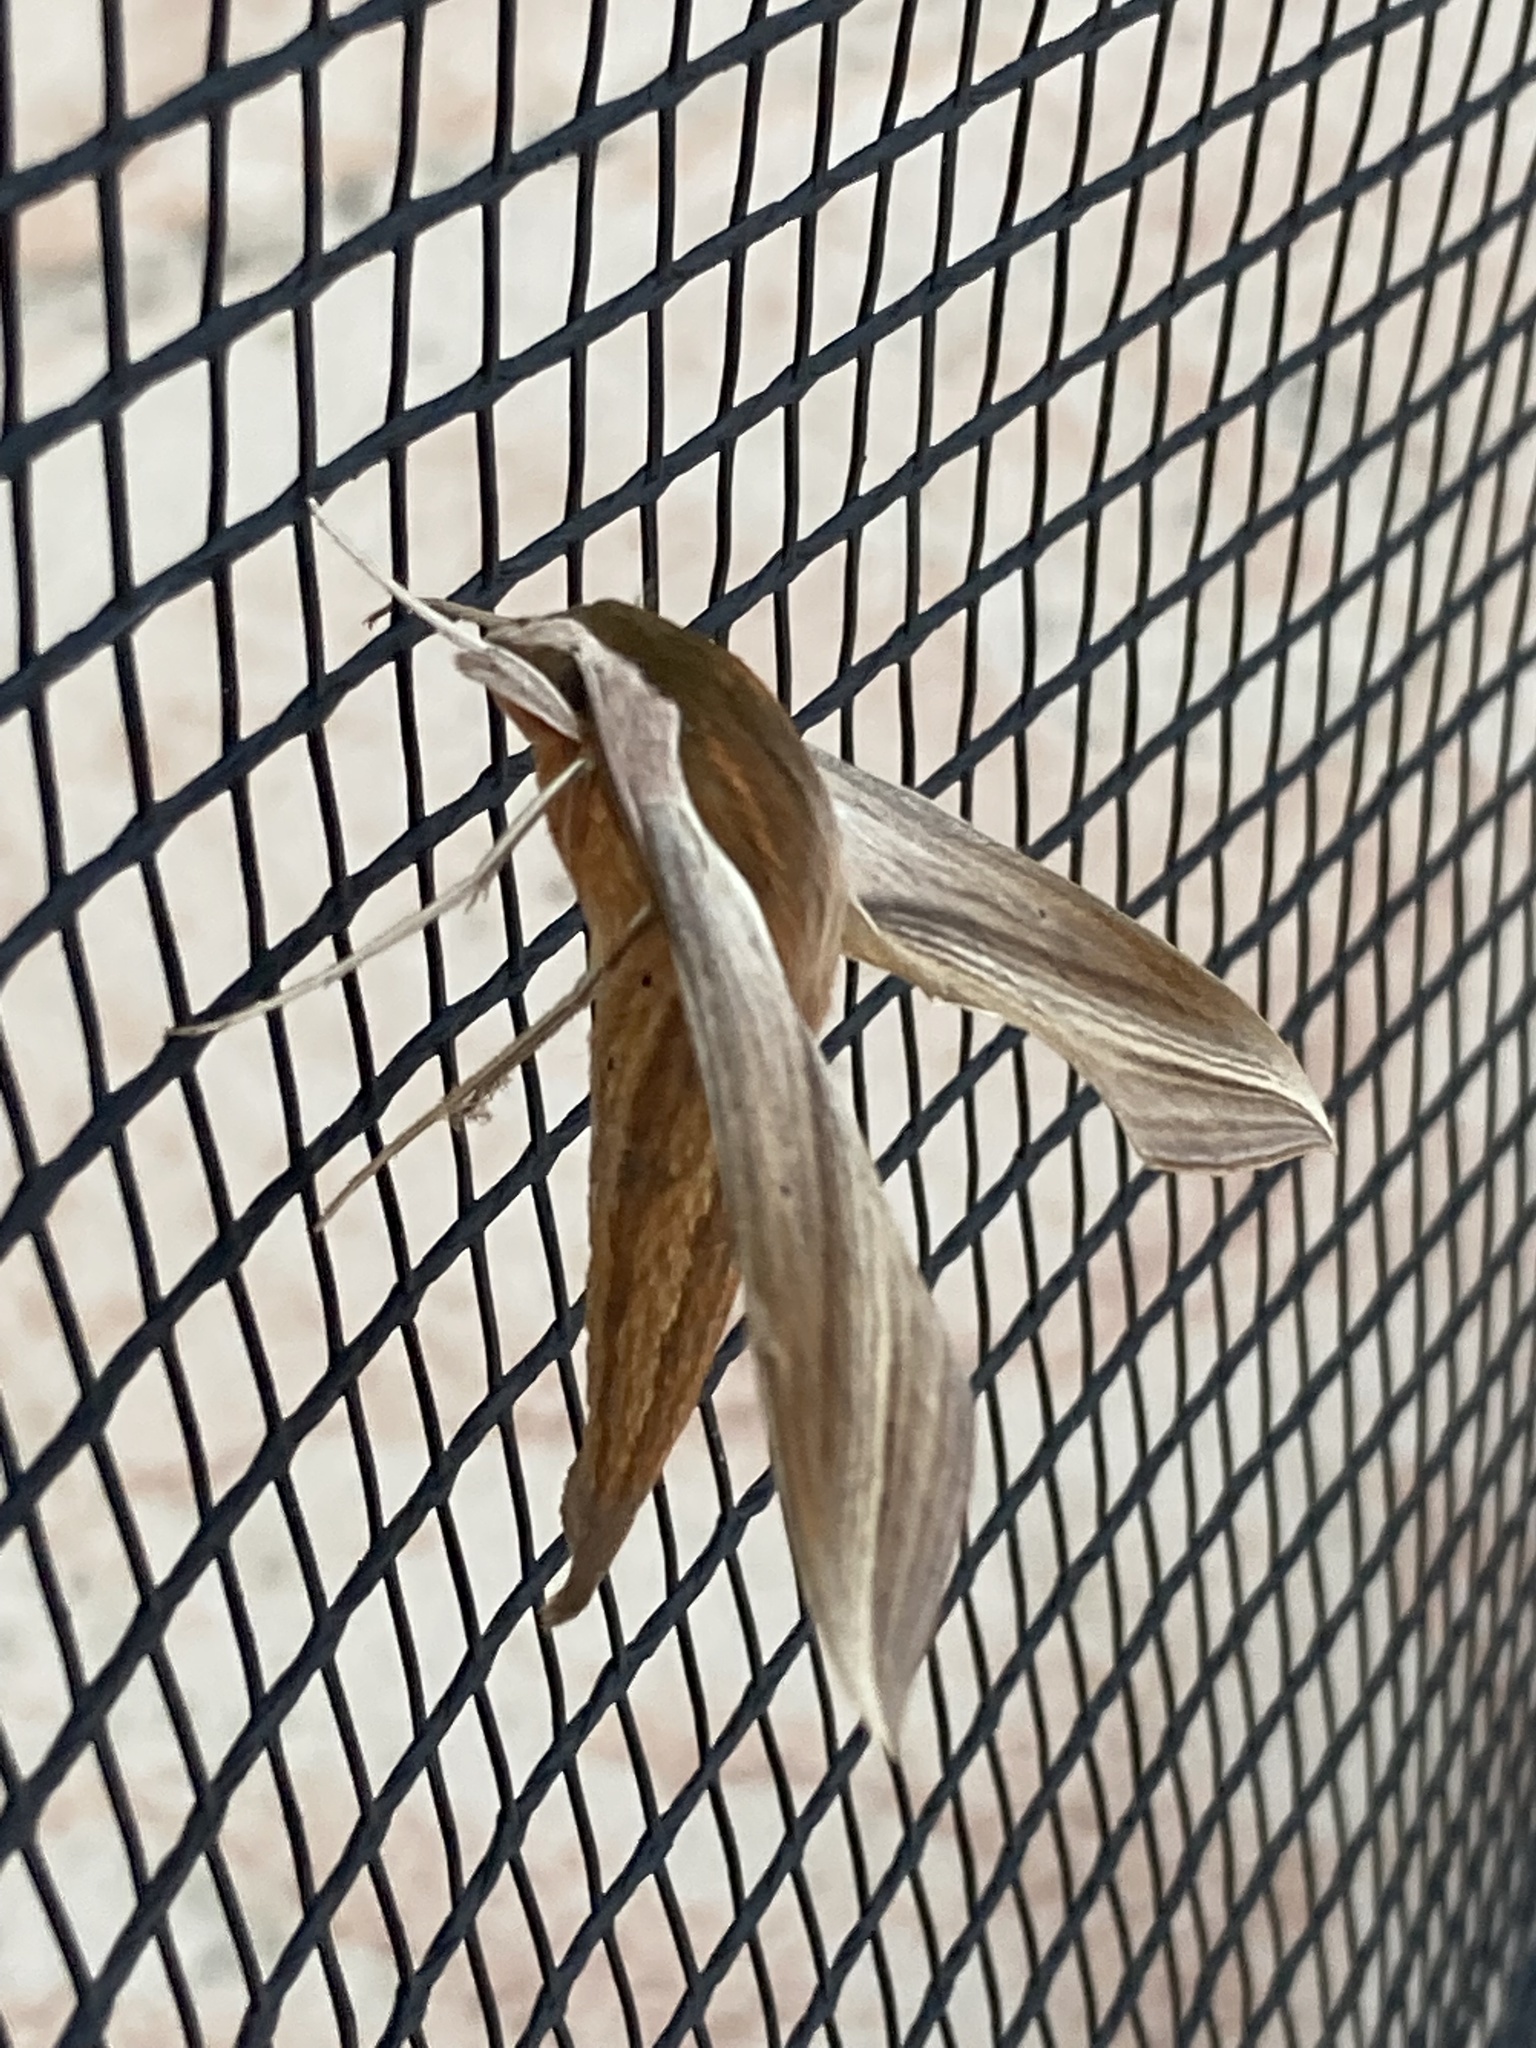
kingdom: Animalia
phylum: Arthropoda
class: Insecta
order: Lepidoptera
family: Sphingidae
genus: Xylophanes
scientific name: Xylophanes tersa
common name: Tersa sphinx
